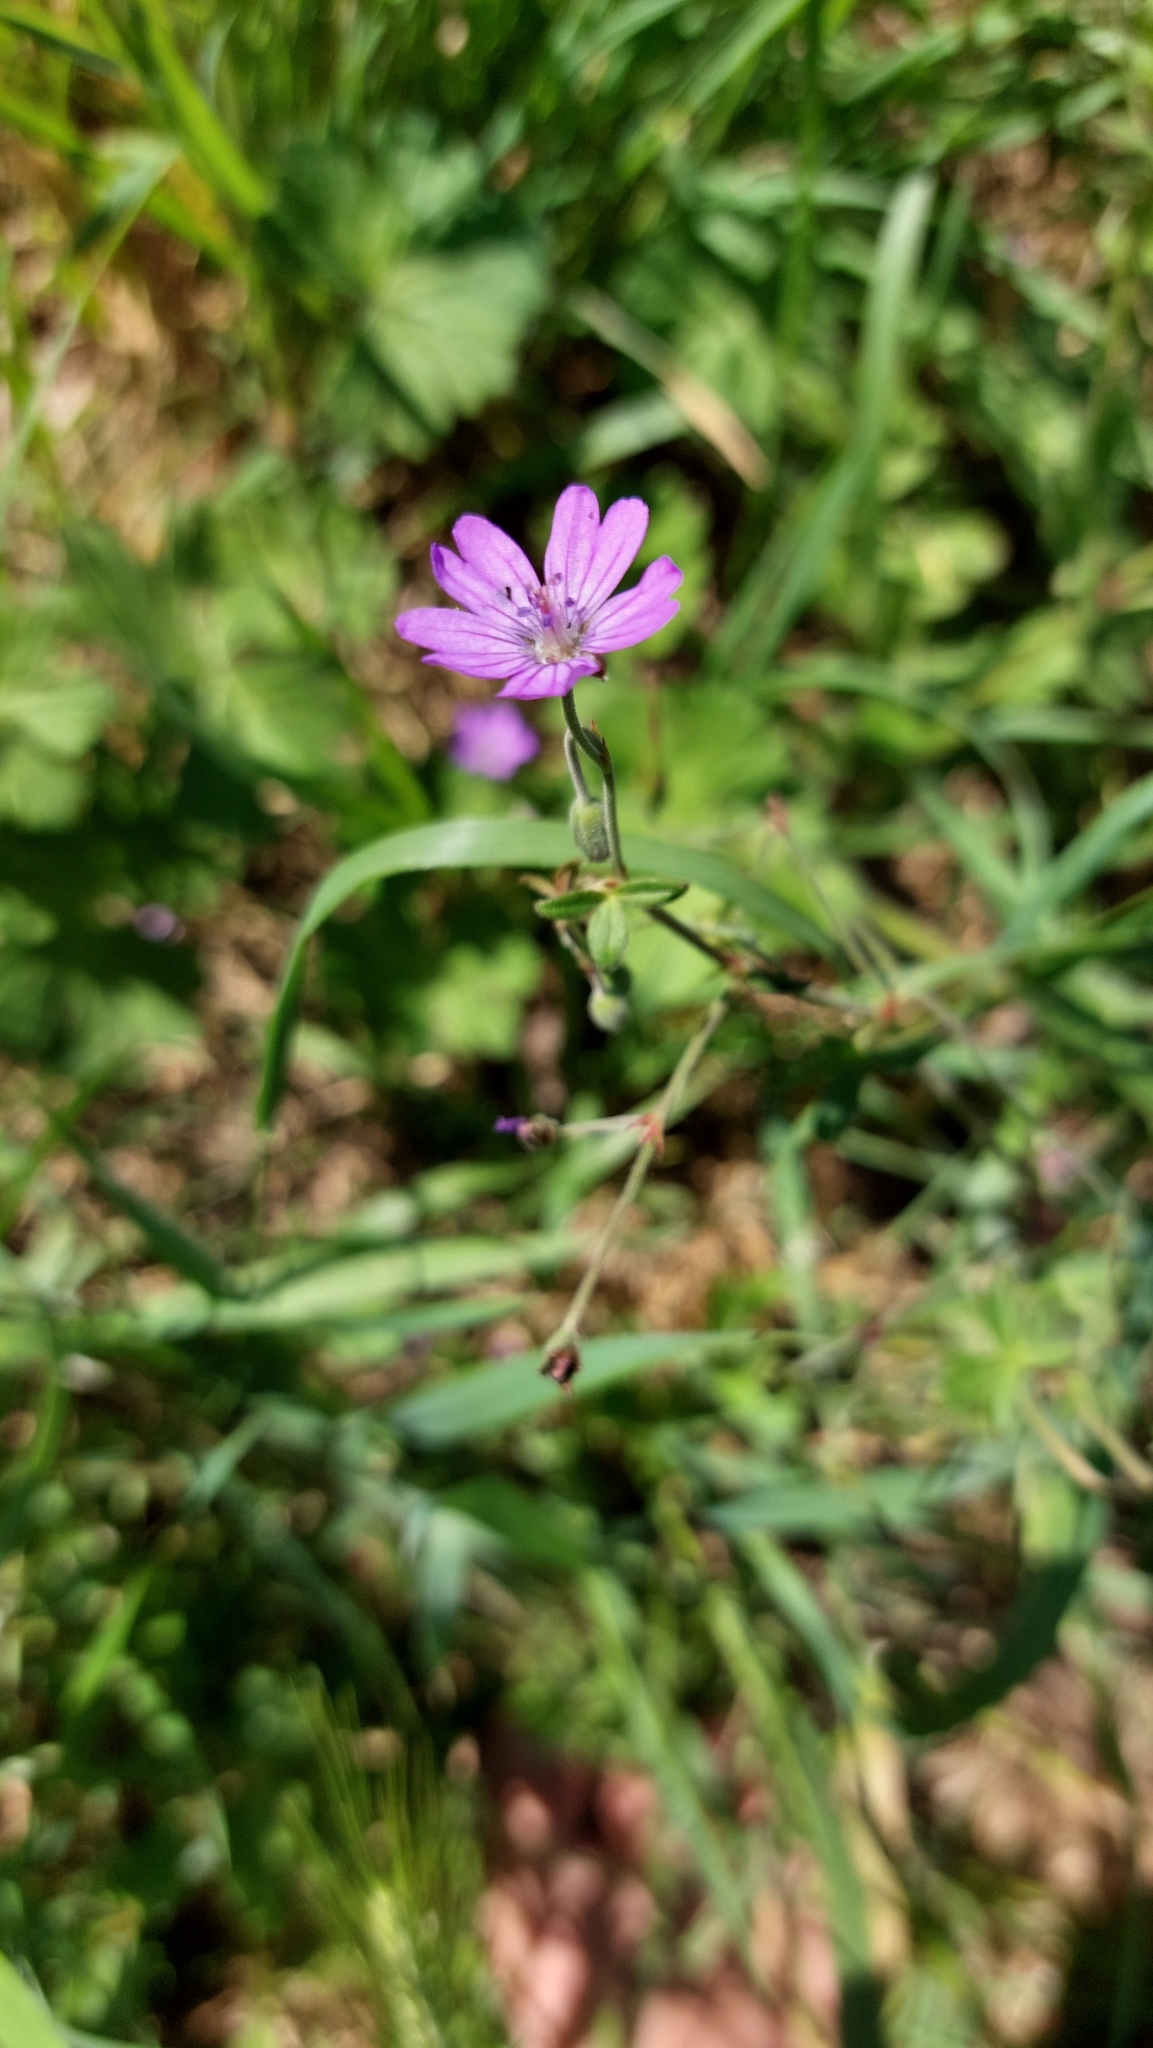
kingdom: Plantae
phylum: Tracheophyta
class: Magnoliopsida
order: Geraniales
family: Geraniaceae
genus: Geranium
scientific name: Geranium pyrenaicum
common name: Hedgerow crane's-bill
